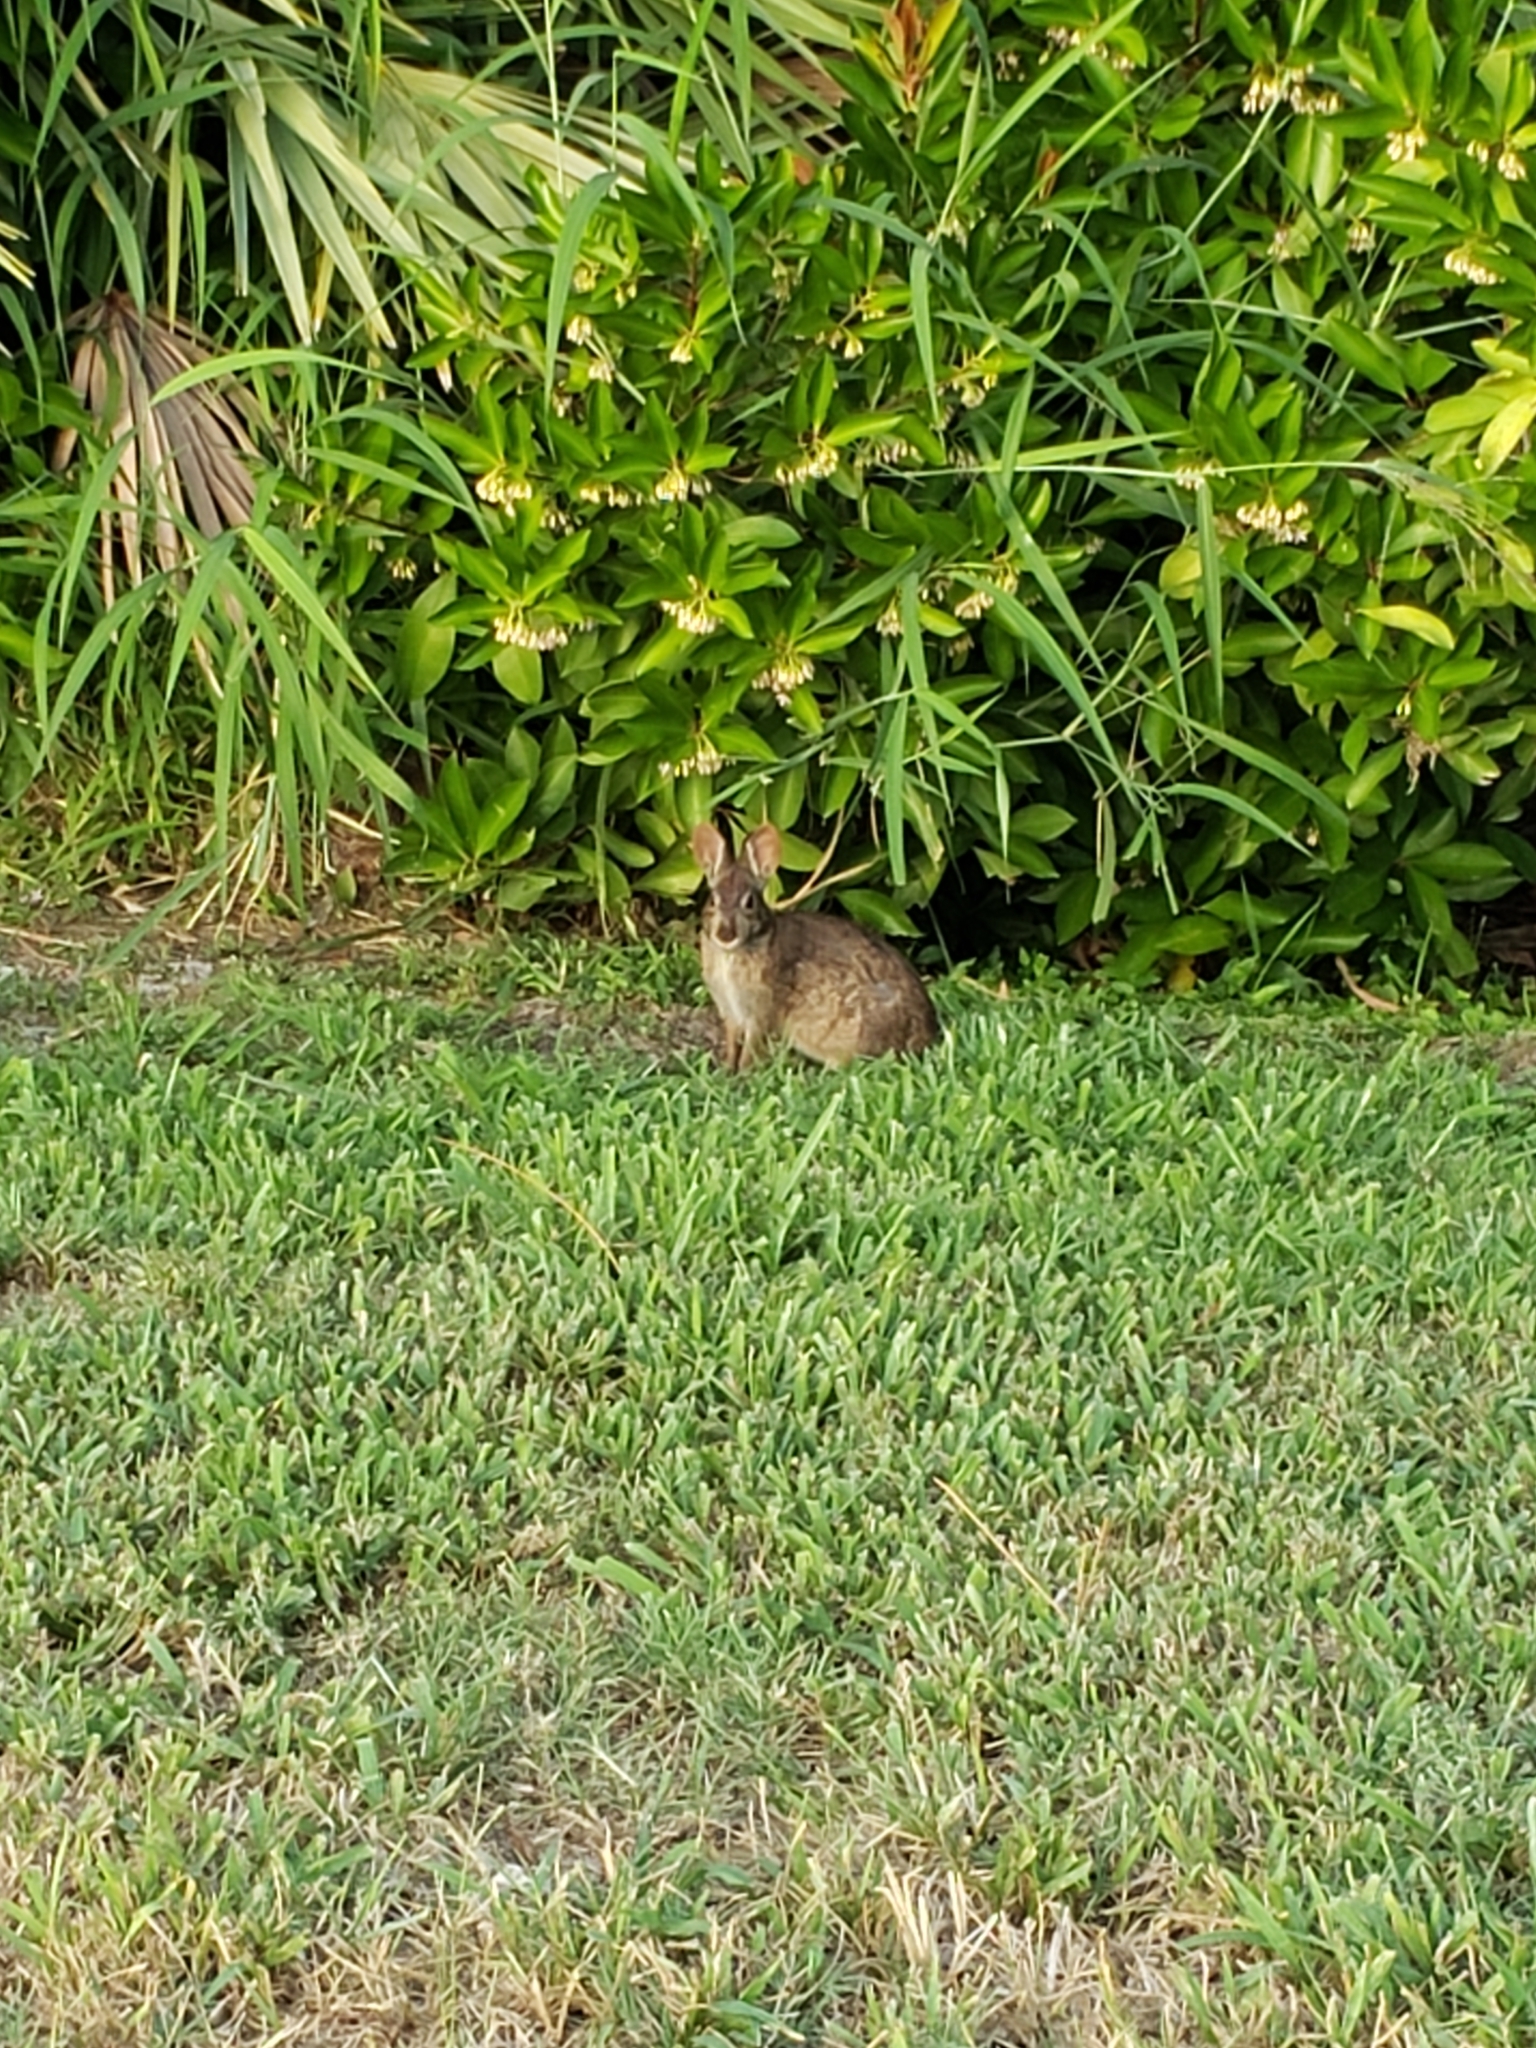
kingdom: Animalia
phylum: Chordata
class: Mammalia
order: Lagomorpha
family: Leporidae
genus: Sylvilagus
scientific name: Sylvilagus palustris
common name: Marsh rabbit
